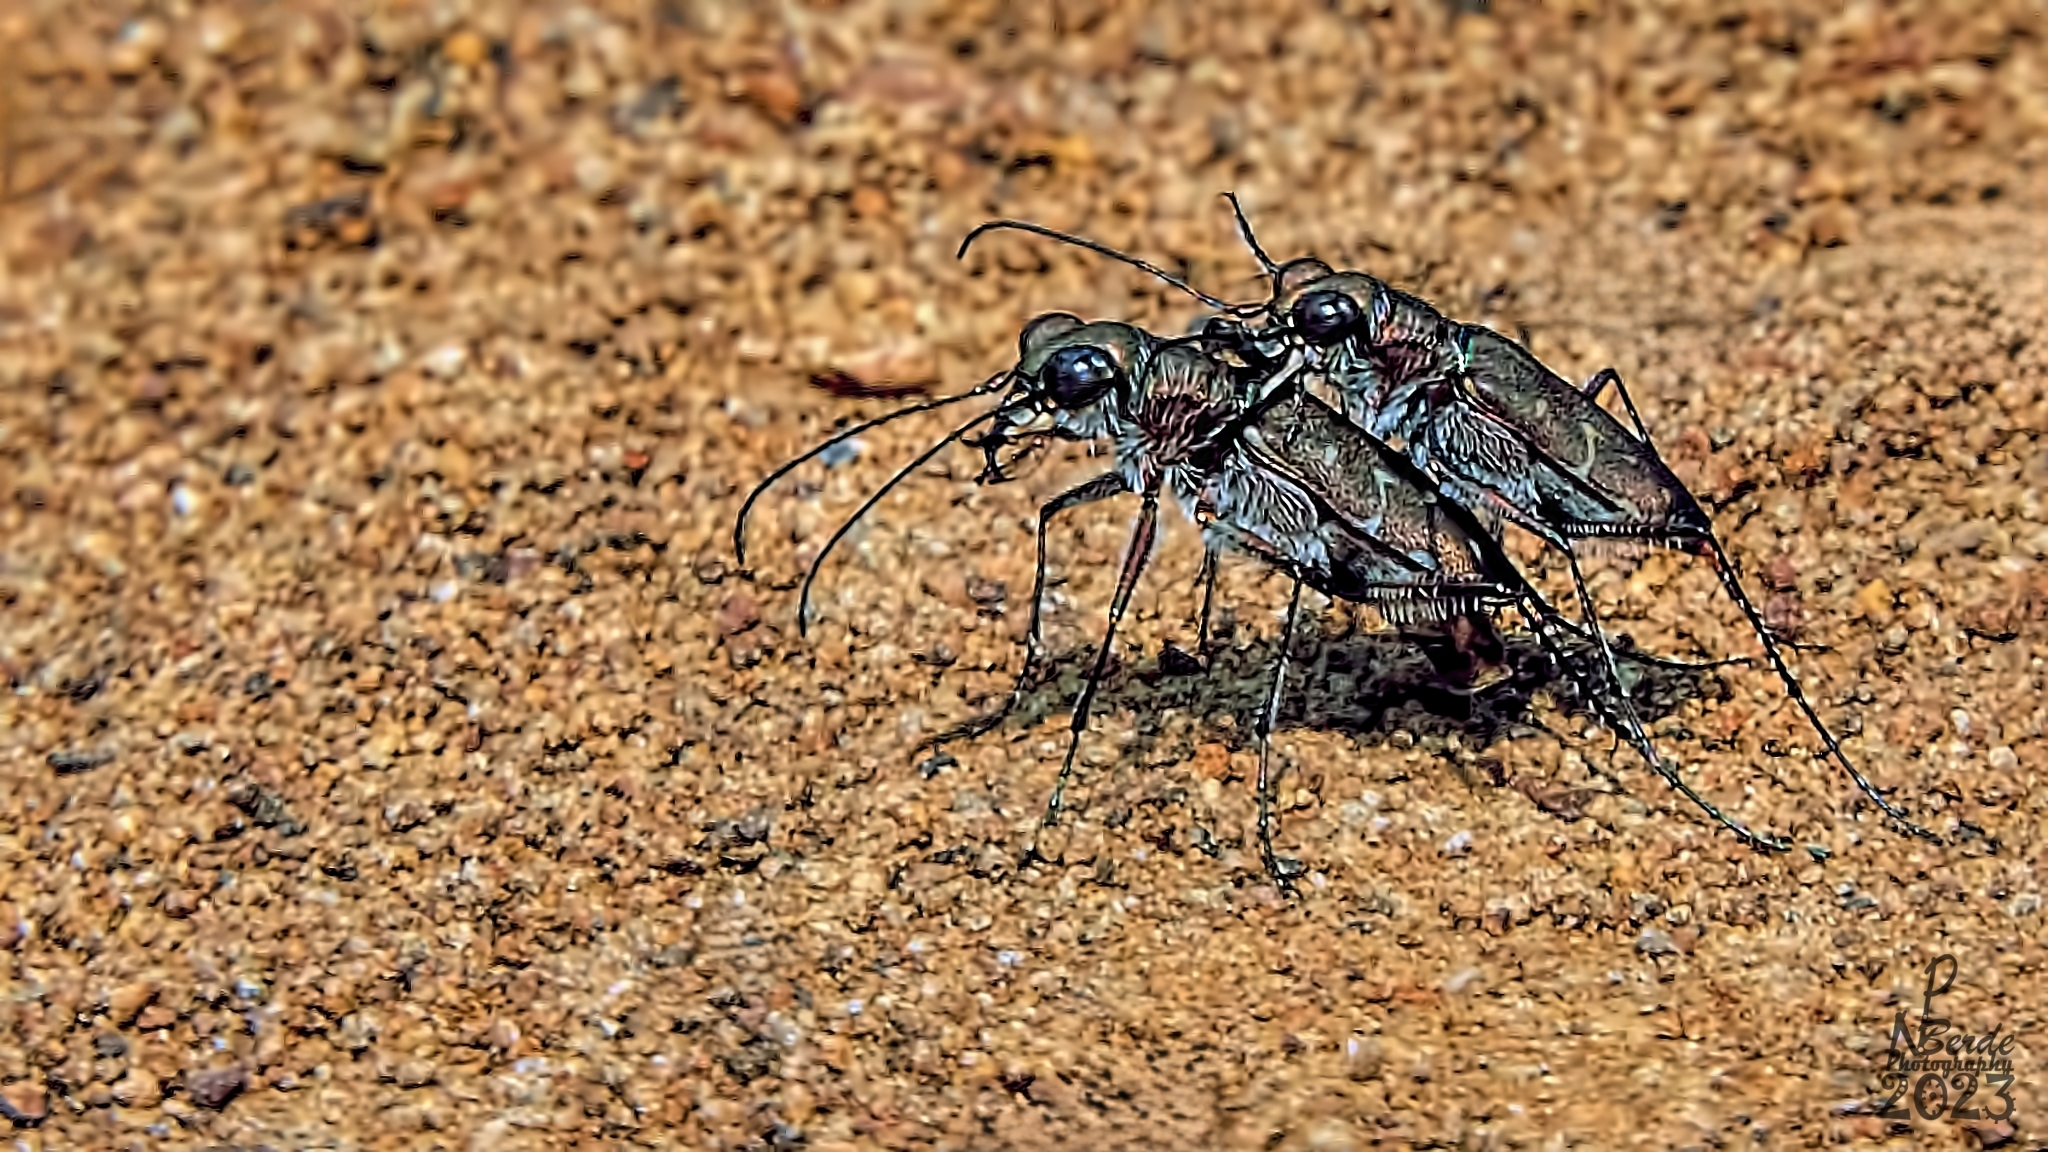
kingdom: Animalia
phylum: Arthropoda
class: Insecta
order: Coleoptera
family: Carabidae
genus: Cicindela
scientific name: Cicindela fowleri
